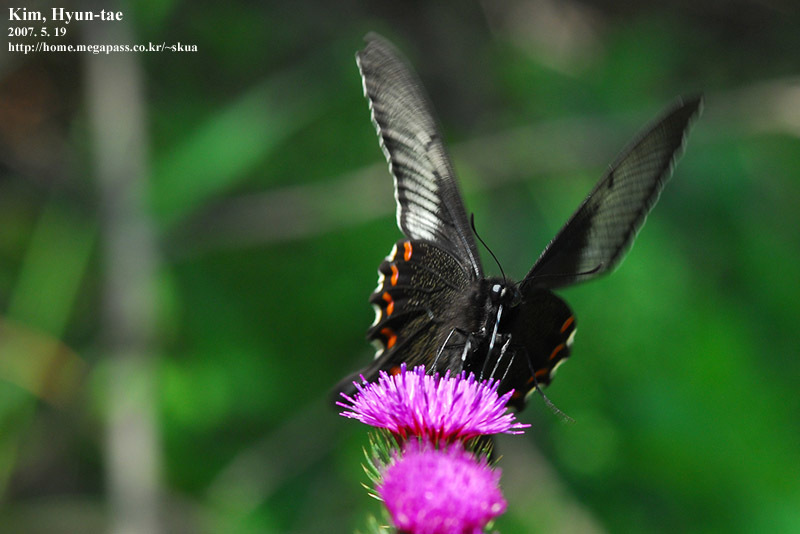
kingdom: Animalia
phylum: Arthropoda
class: Insecta
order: Lepidoptera
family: Papilionidae
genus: Papilio
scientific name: Papilio dehaanii
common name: Japanese peacock swallowtail
